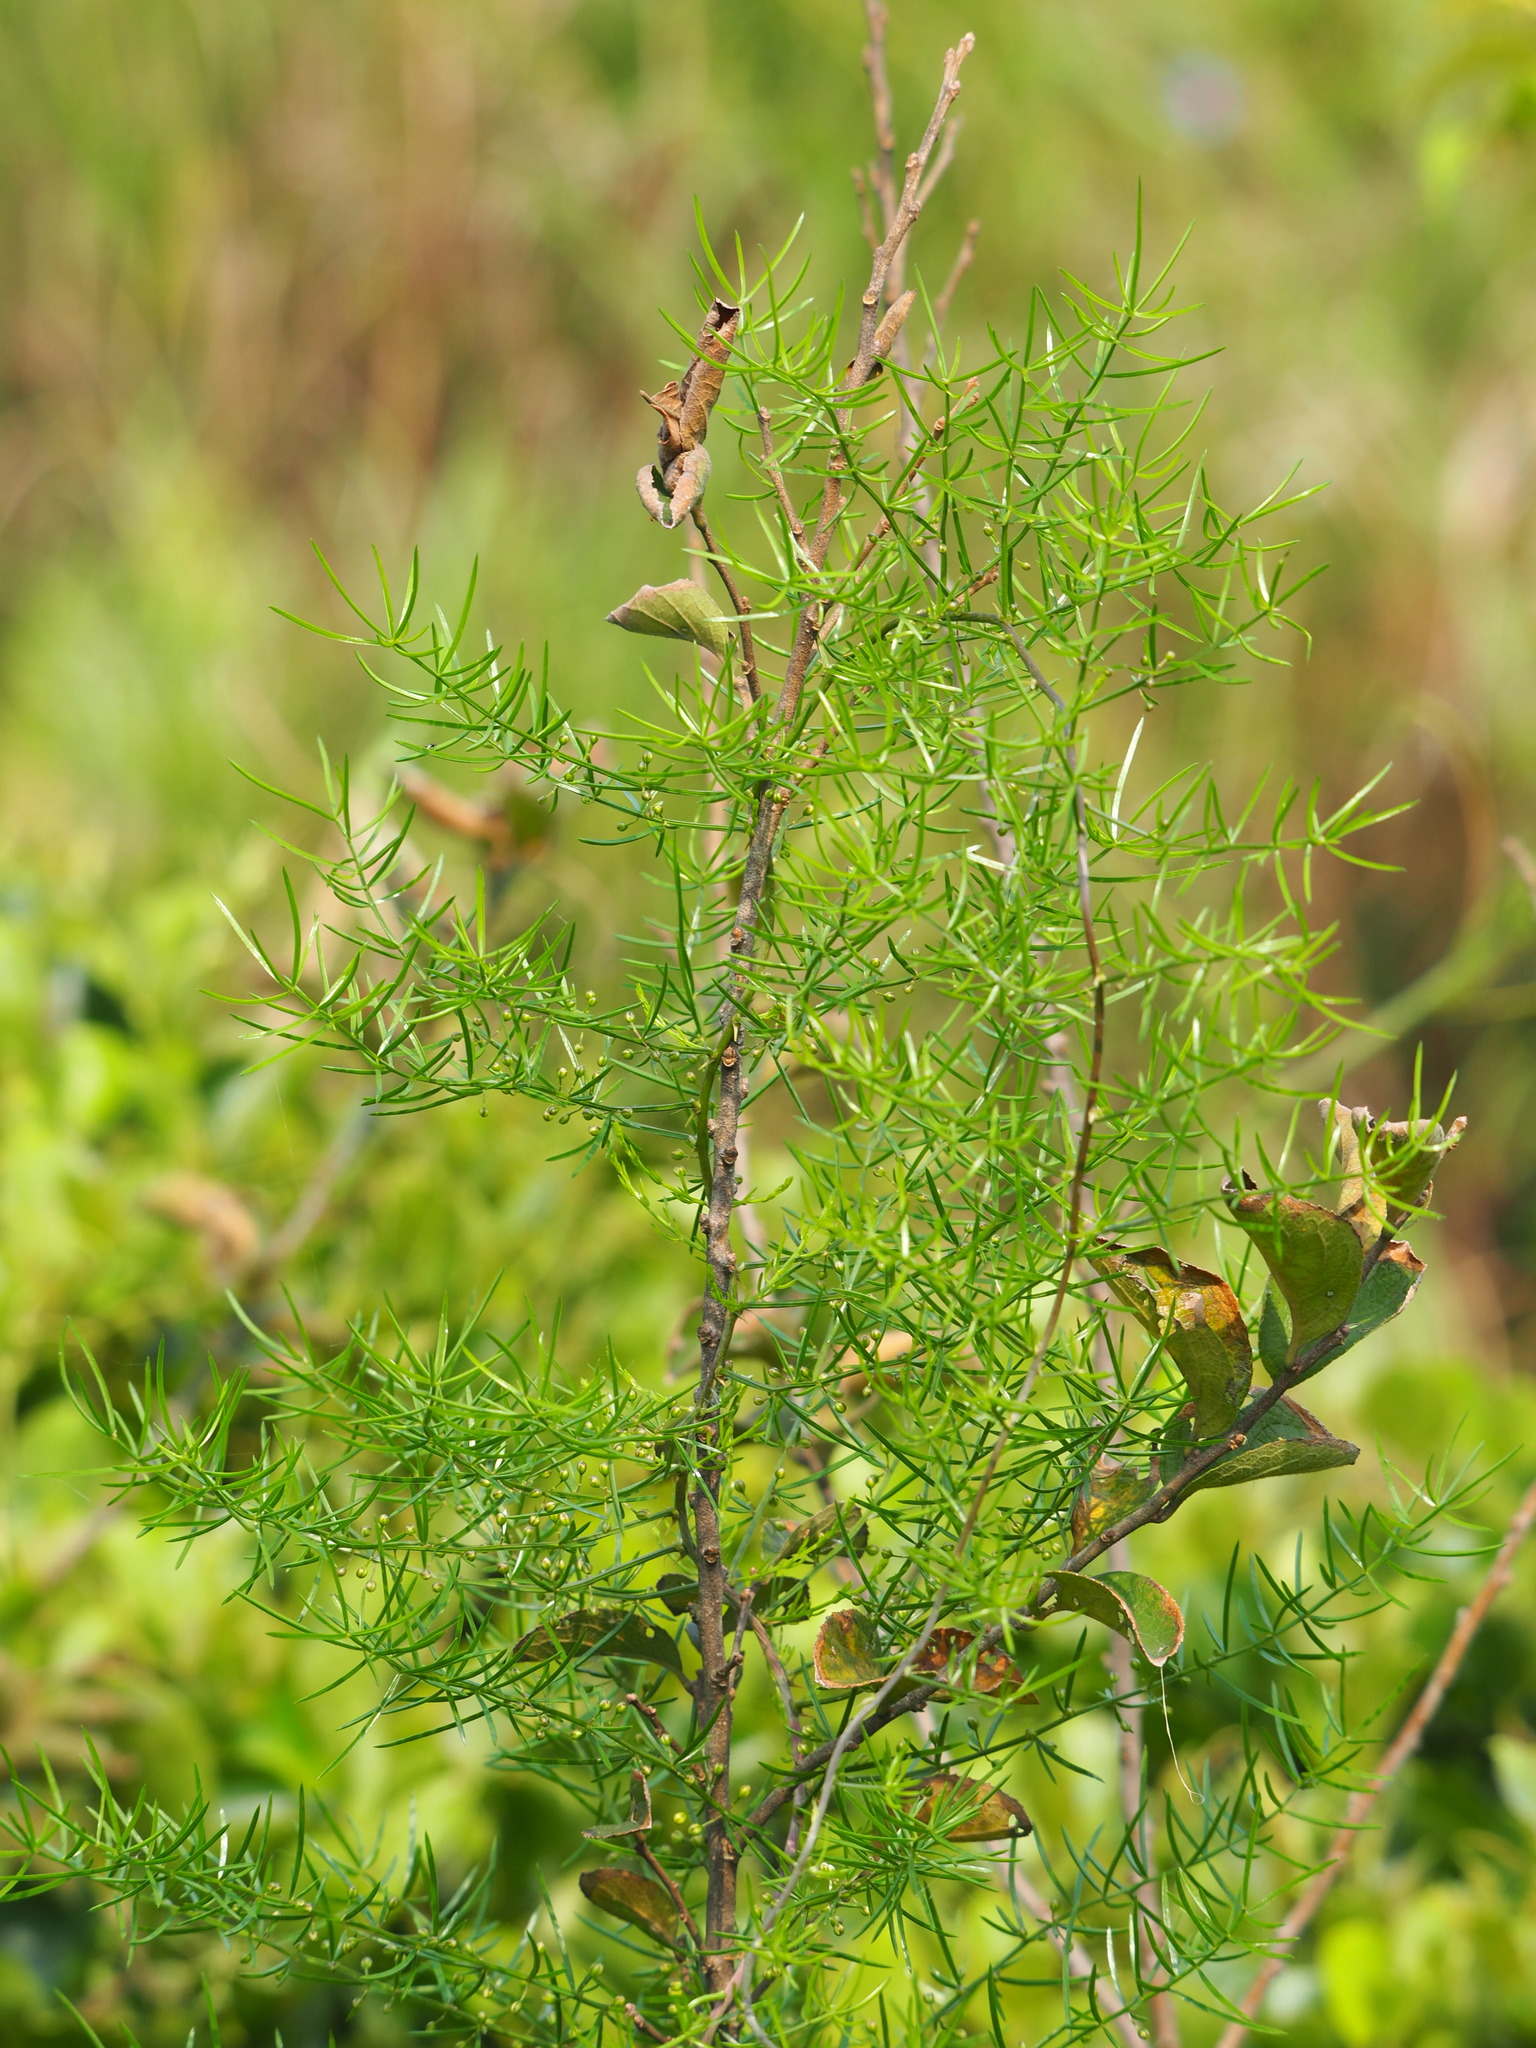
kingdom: Plantae
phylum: Tracheophyta
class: Liliopsida
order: Asparagales
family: Asparagaceae
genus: Asparagus
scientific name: Asparagus cochinchinensis
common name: Chinese asparagus
